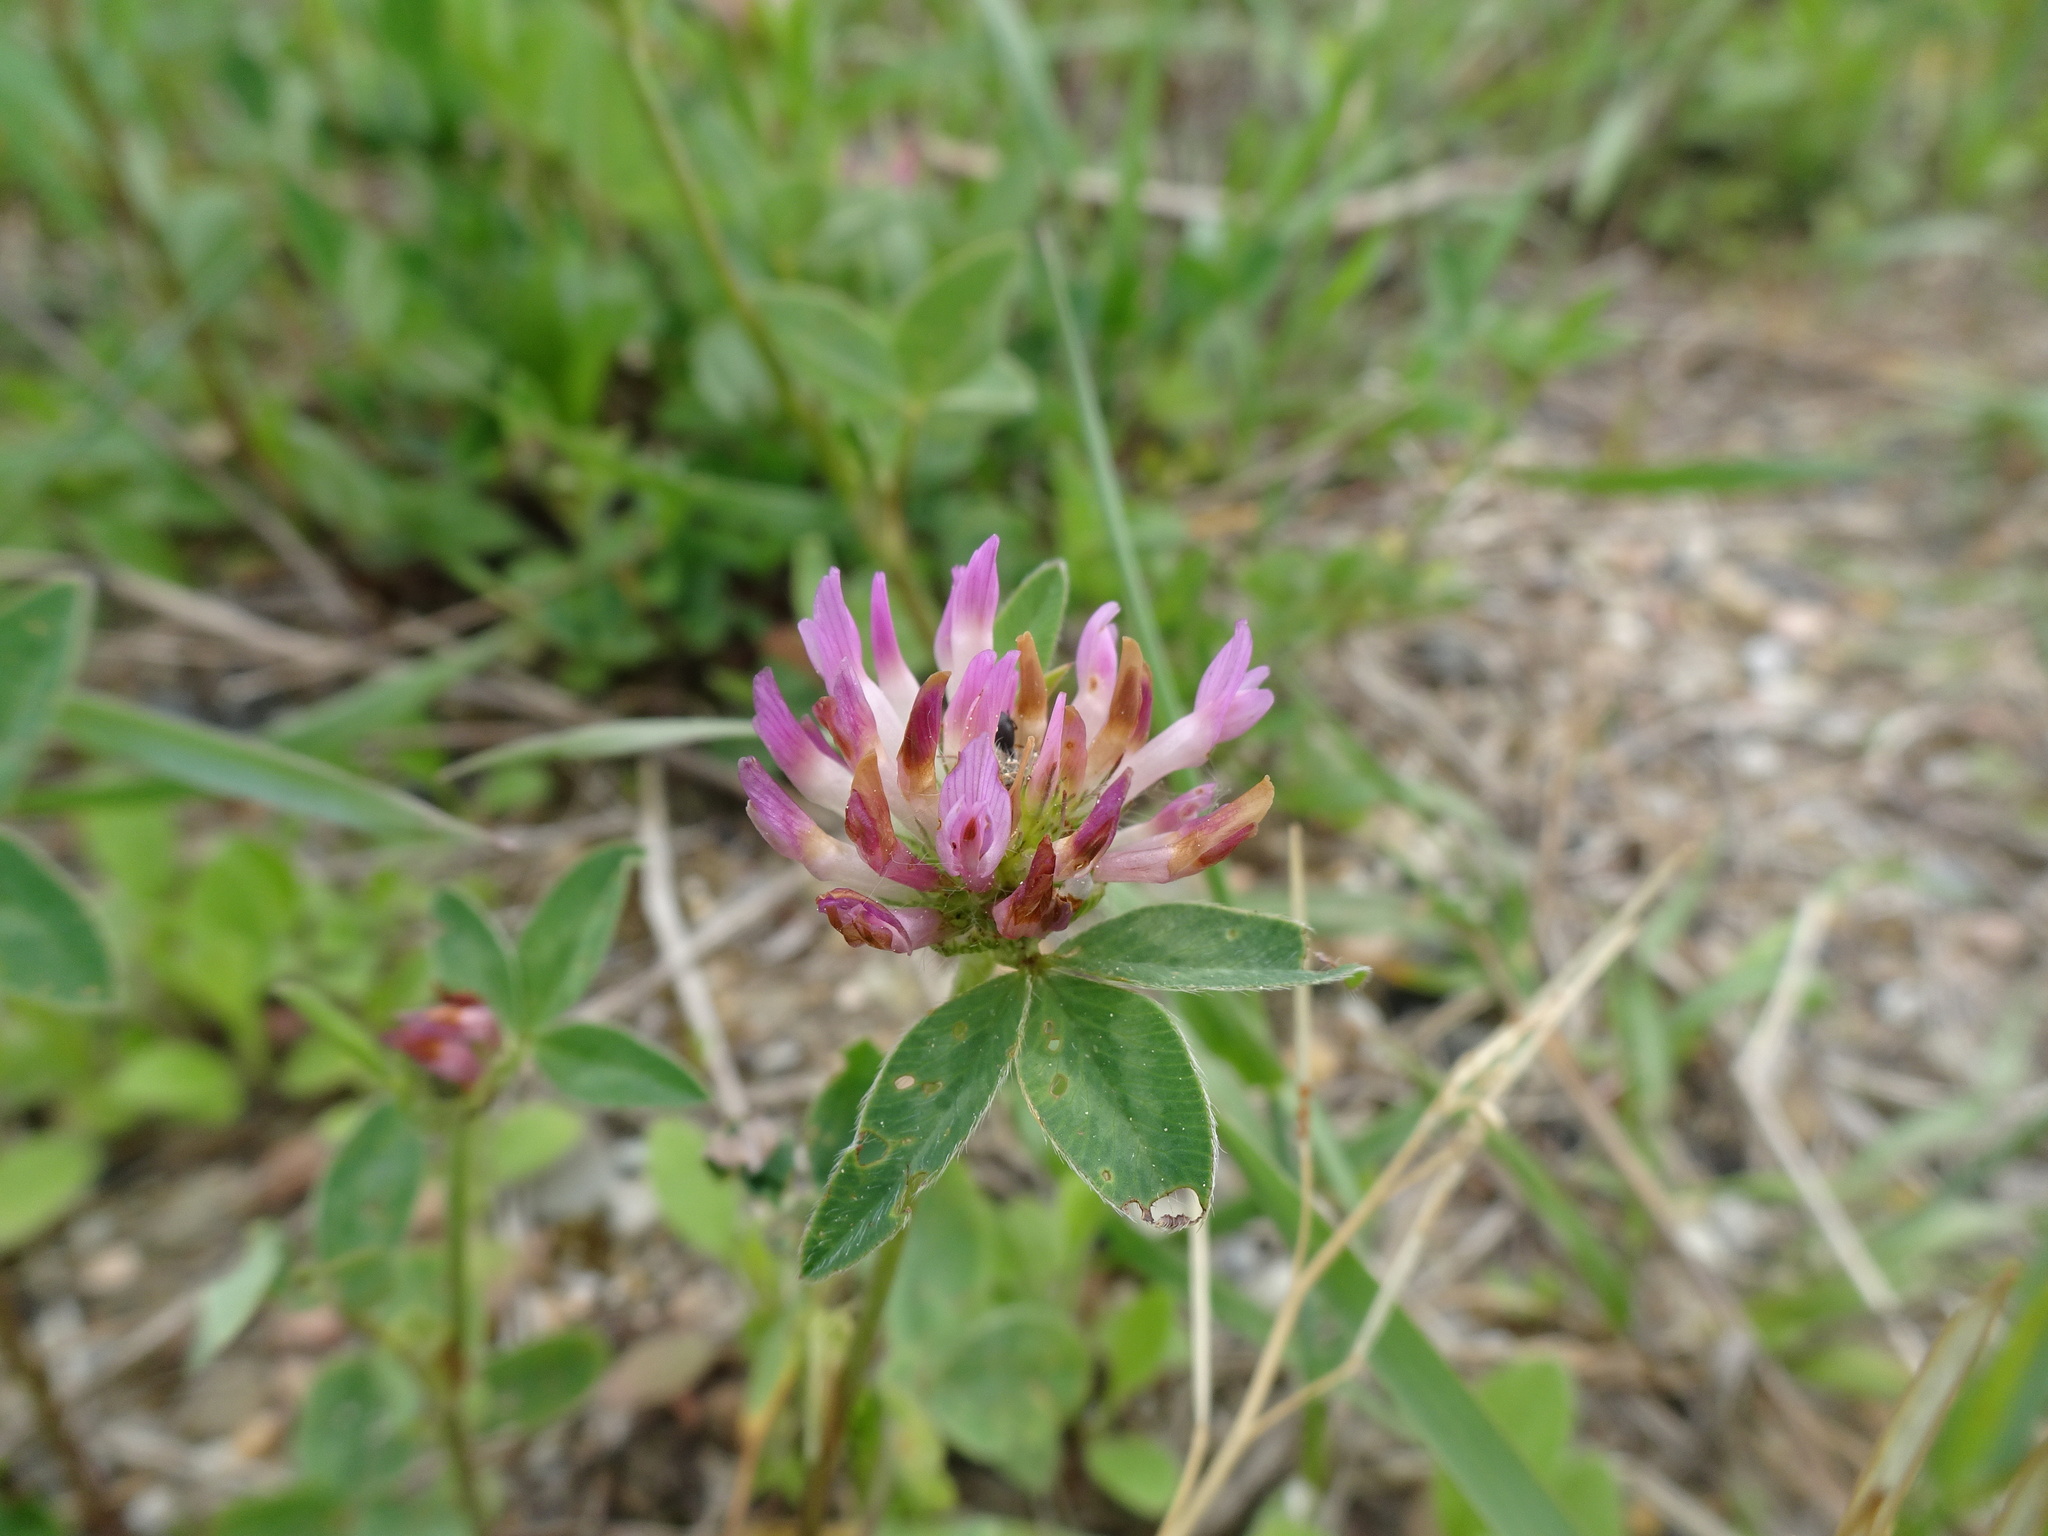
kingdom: Plantae
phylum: Tracheophyta
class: Magnoliopsida
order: Fabales
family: Fabaceae
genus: Trifolium
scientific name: Trifolium pratense
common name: Red clover
